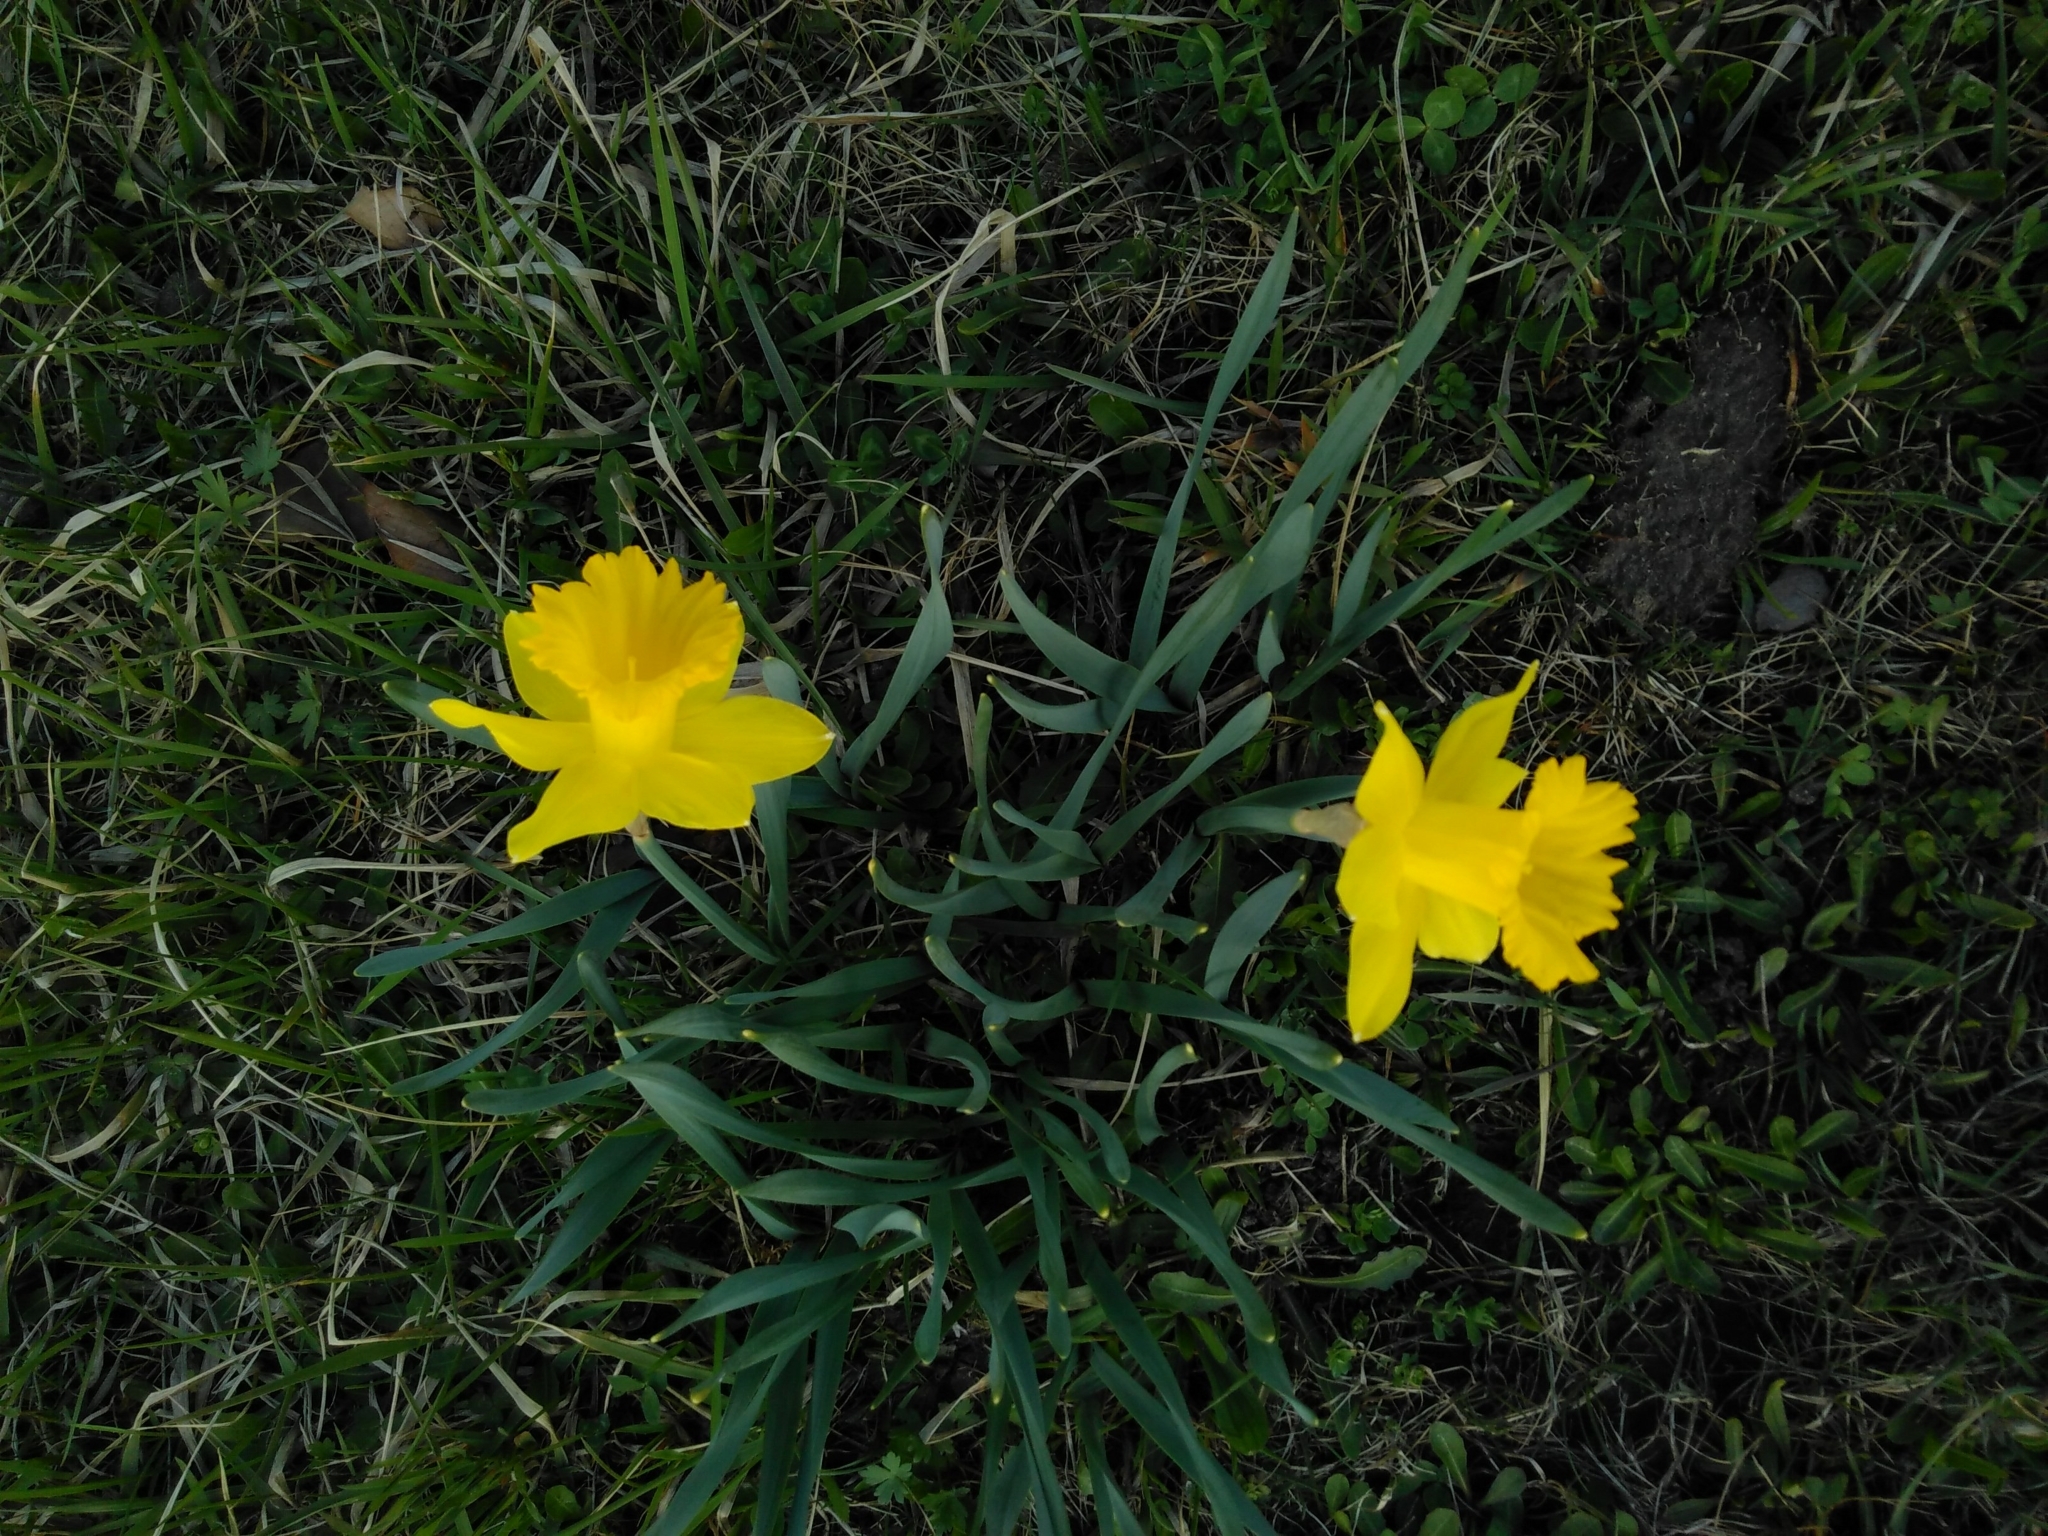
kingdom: Plantae
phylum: Tracheophyta
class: Liliopsida
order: Asparagales
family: Amaryllidaceae
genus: Narcissus
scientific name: Narcissus pseudonarcissus
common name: Daffodil
